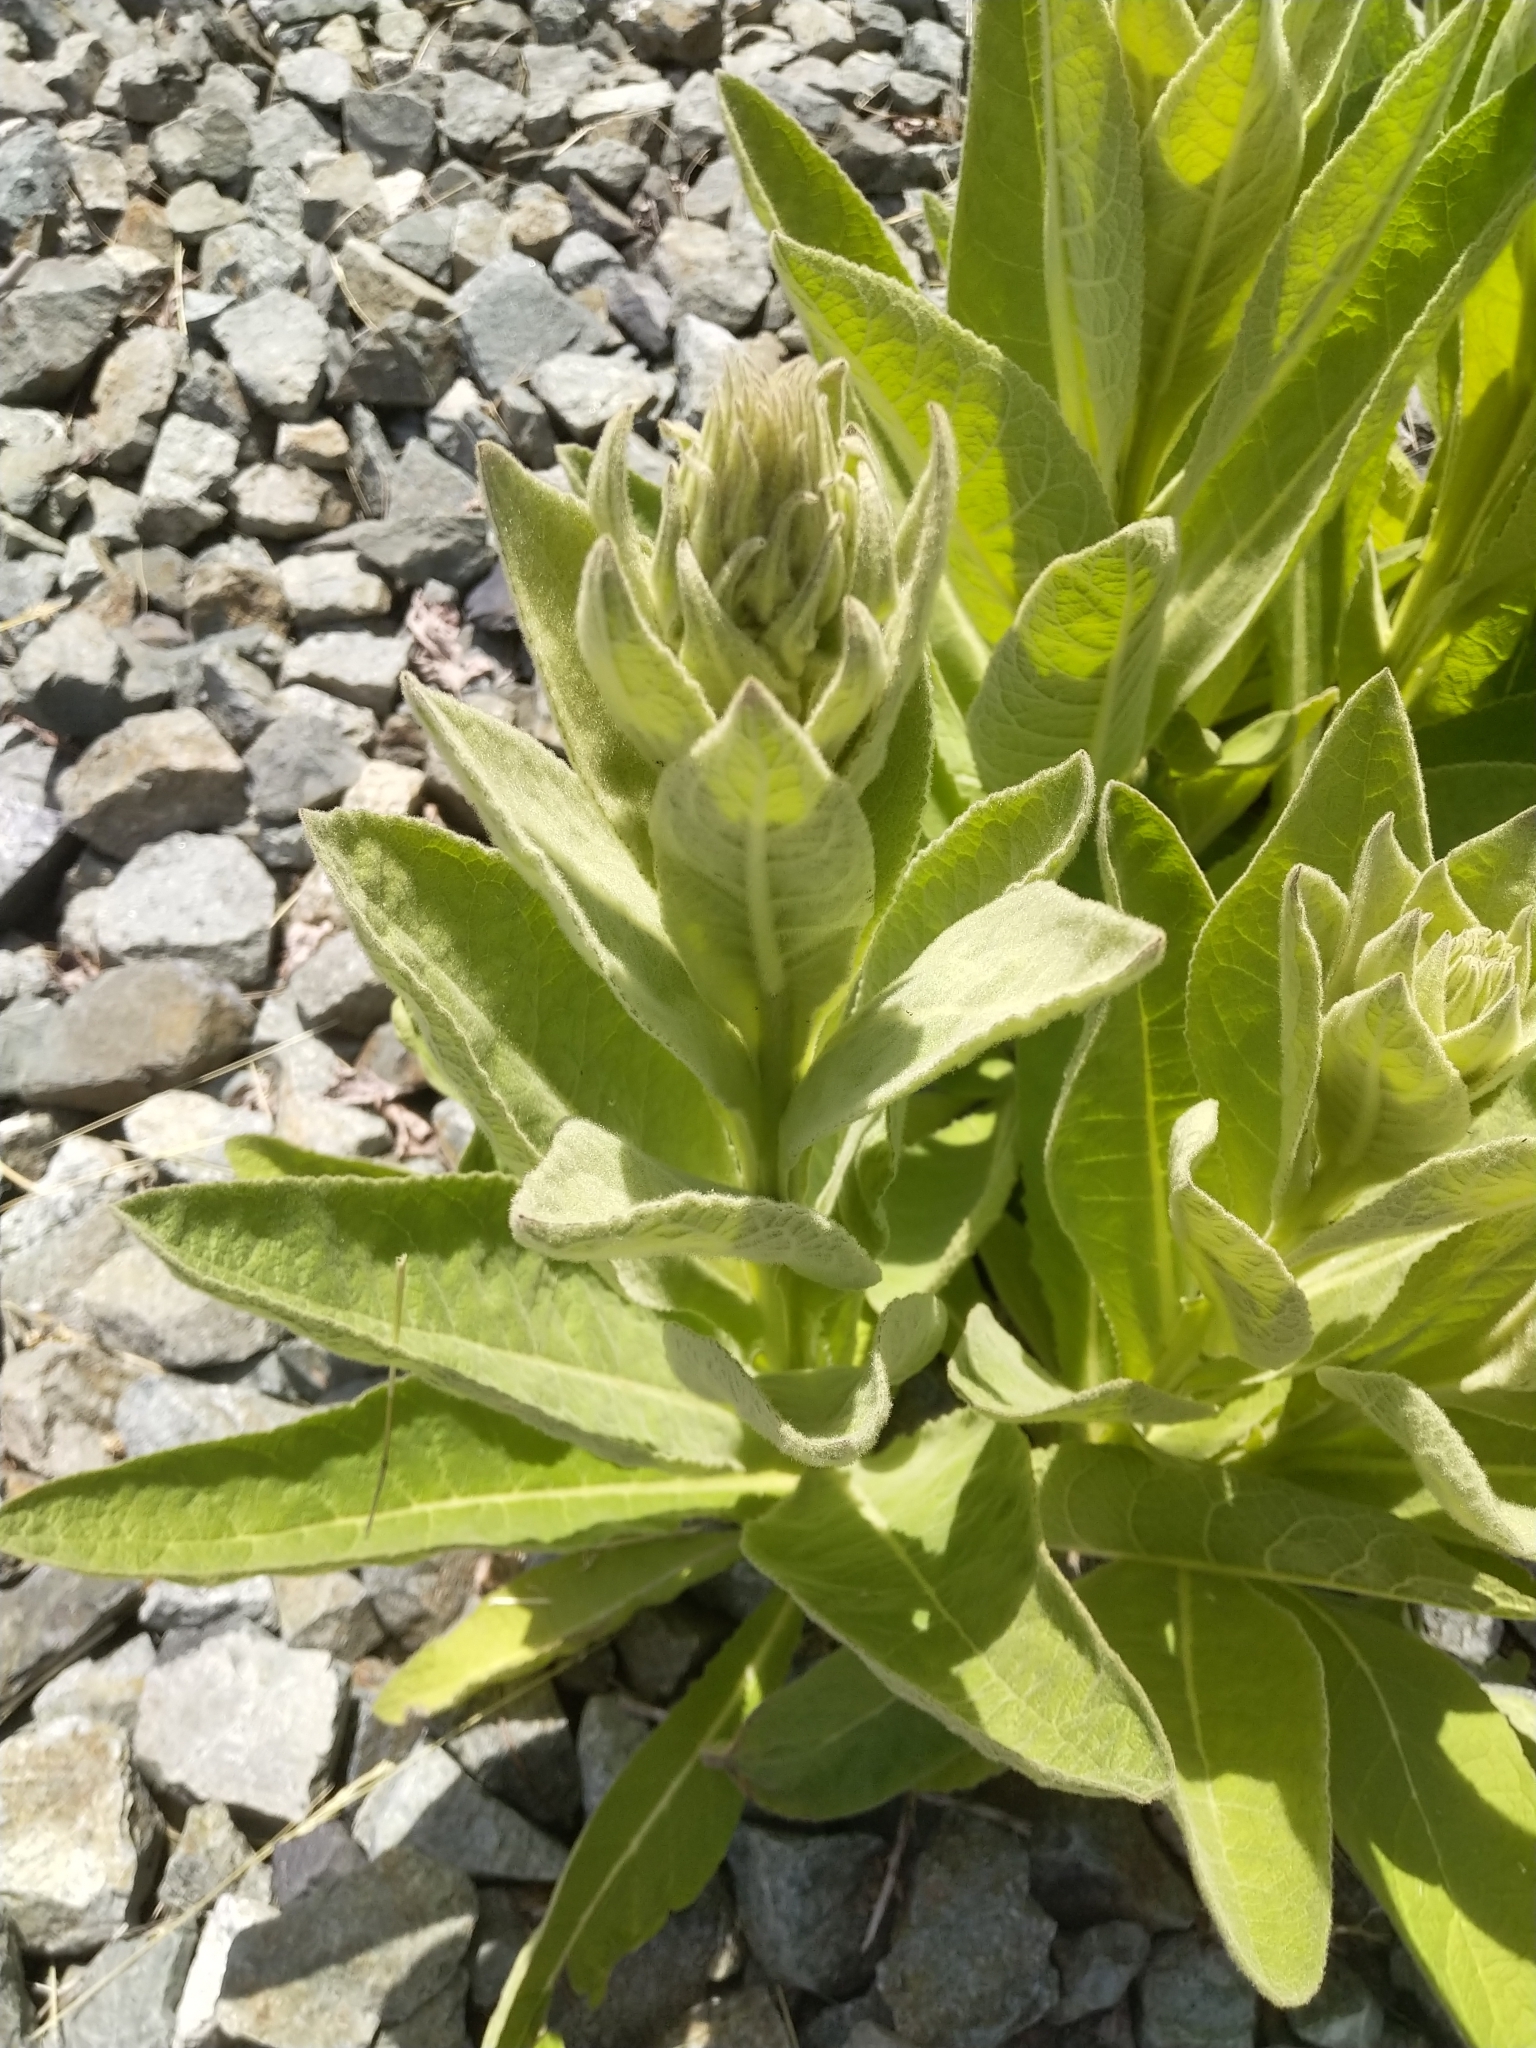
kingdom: Plantae
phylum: Tracheophyta
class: Magnoliopsida
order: Lamiales
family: Scrophulariaceae
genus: Verbascum
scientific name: Verbascum thapsus
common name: Common mullein
